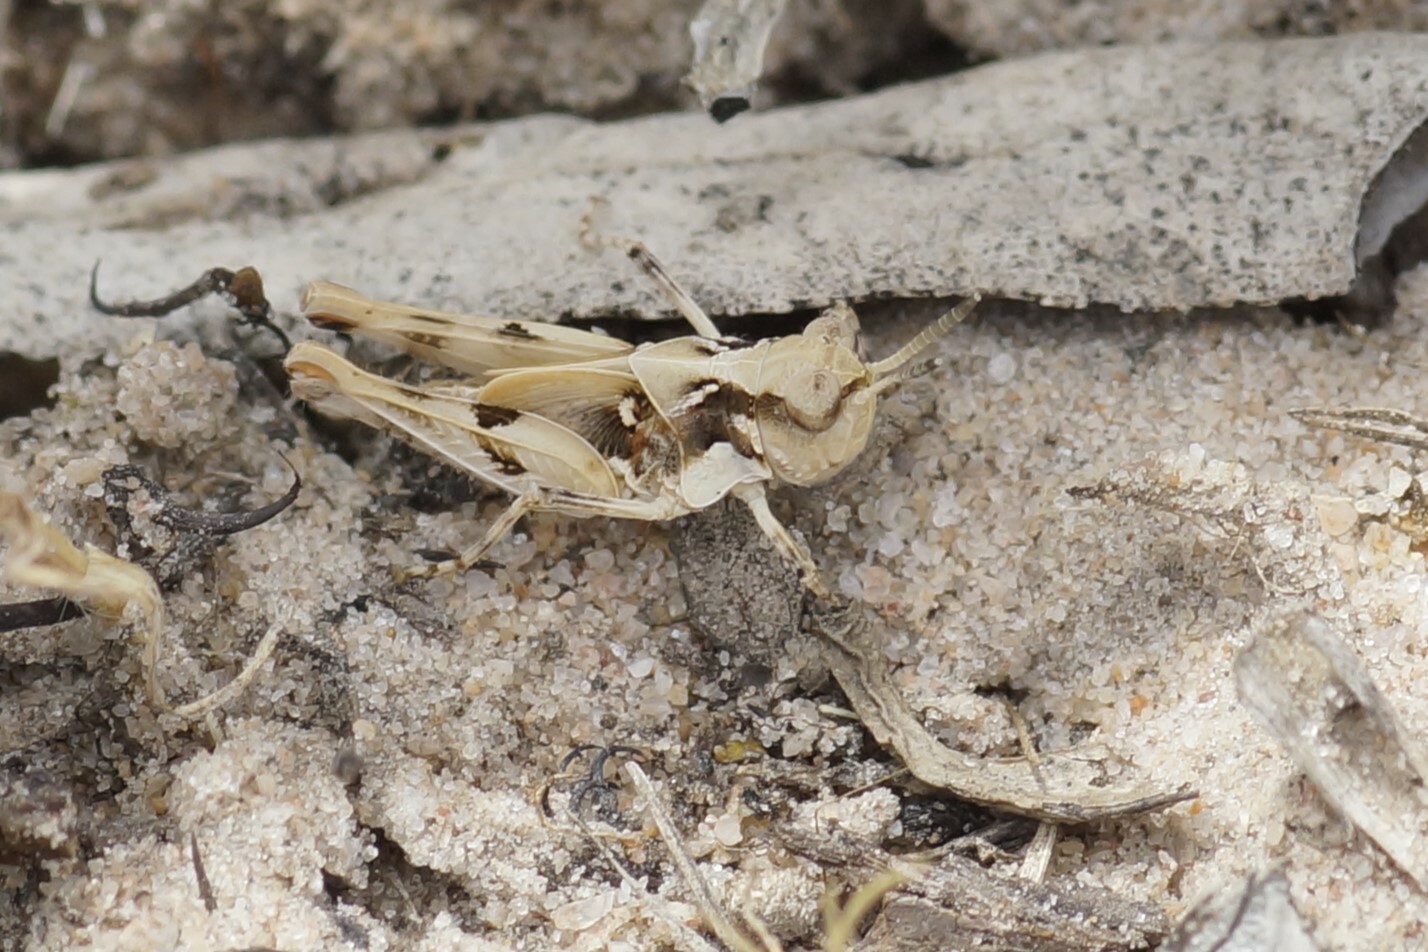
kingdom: Animalia
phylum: Arthropoda
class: Insecta
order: Orthoptera
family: Acrididae
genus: Pycnostictus
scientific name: Pycnostictus seriatus
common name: Common bandwing
